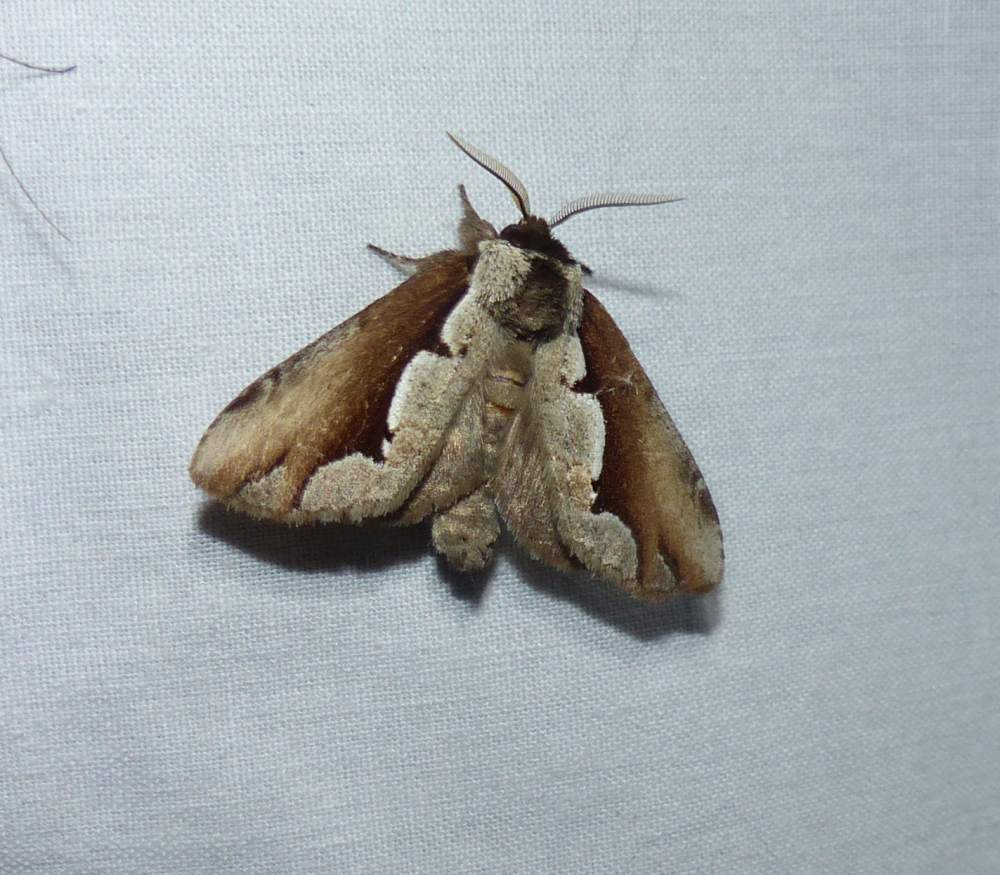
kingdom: Animalia
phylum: Arthropoda
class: Insecta
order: Lepidoptera
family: Notodontidae
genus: Nerice
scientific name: Nerice bidentata
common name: Double-toothed prominent
